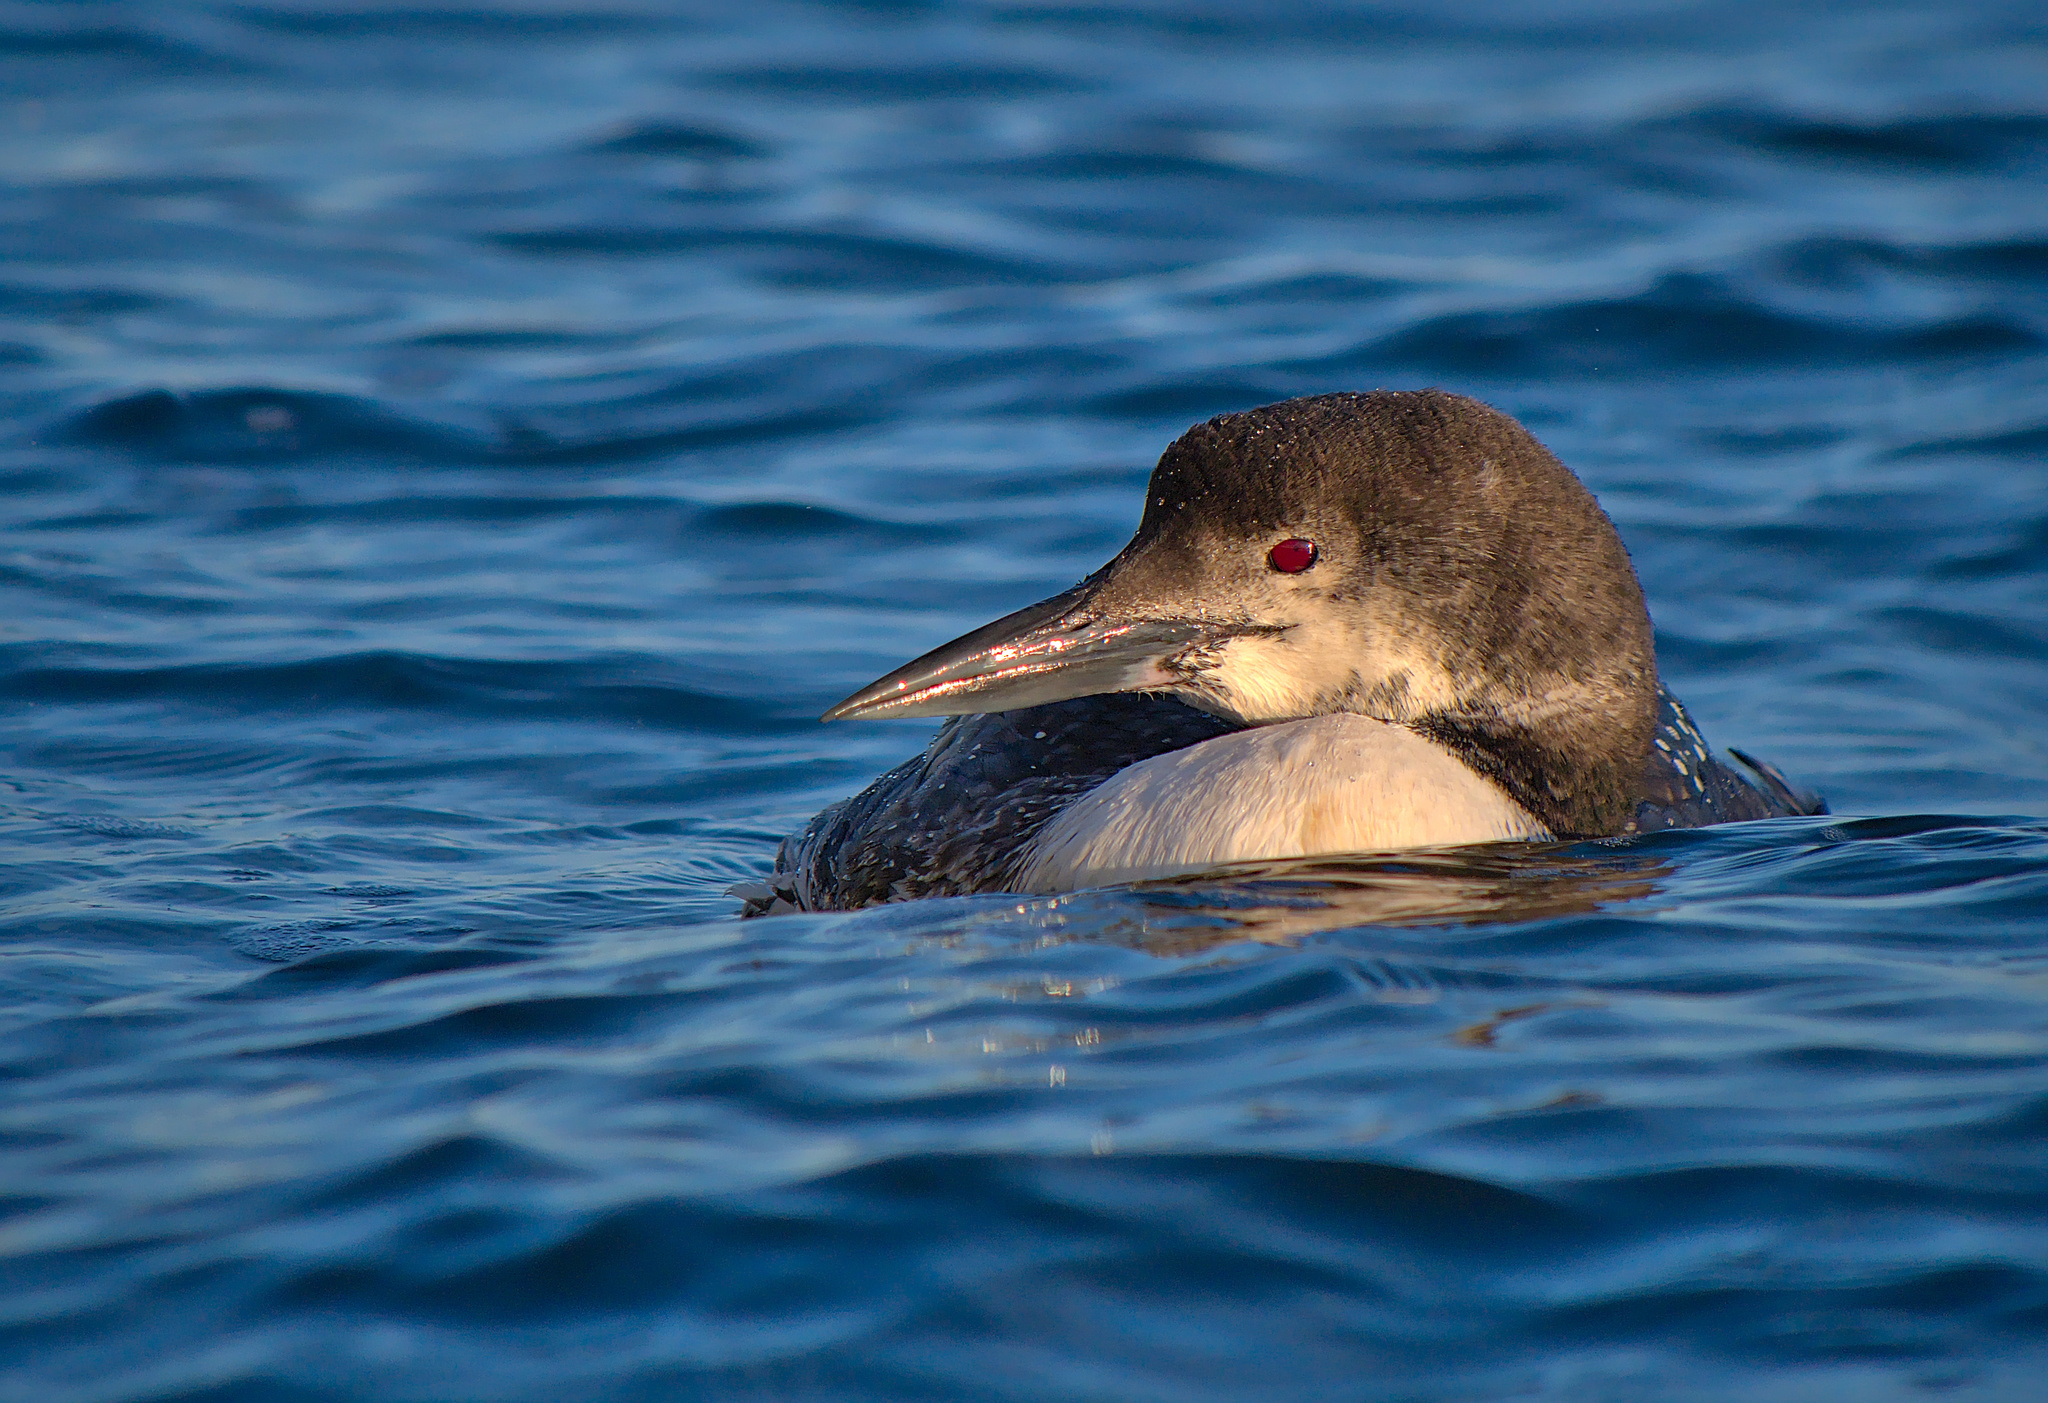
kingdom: Animalia
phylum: Chordata
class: Aves
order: Gaviiformes
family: Gaviidae
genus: Gavia
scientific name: Gavia immer
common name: Common loon
